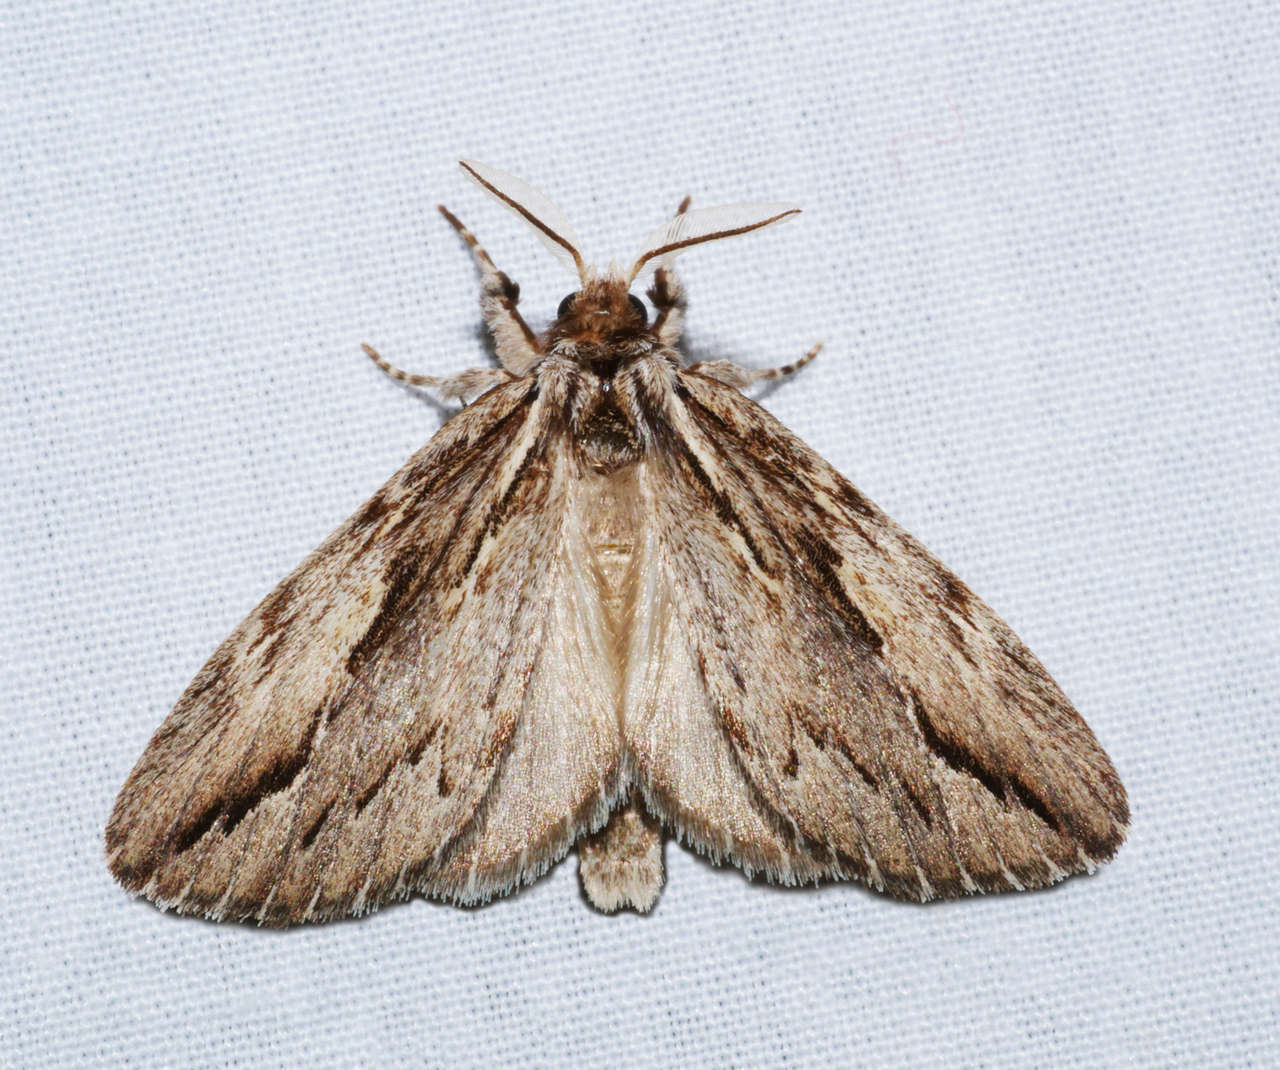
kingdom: Animalia
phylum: Arthropoda
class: Insecta
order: Lepidoptera
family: Notodontidae
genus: Ecnomodes
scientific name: Ecnomodes
